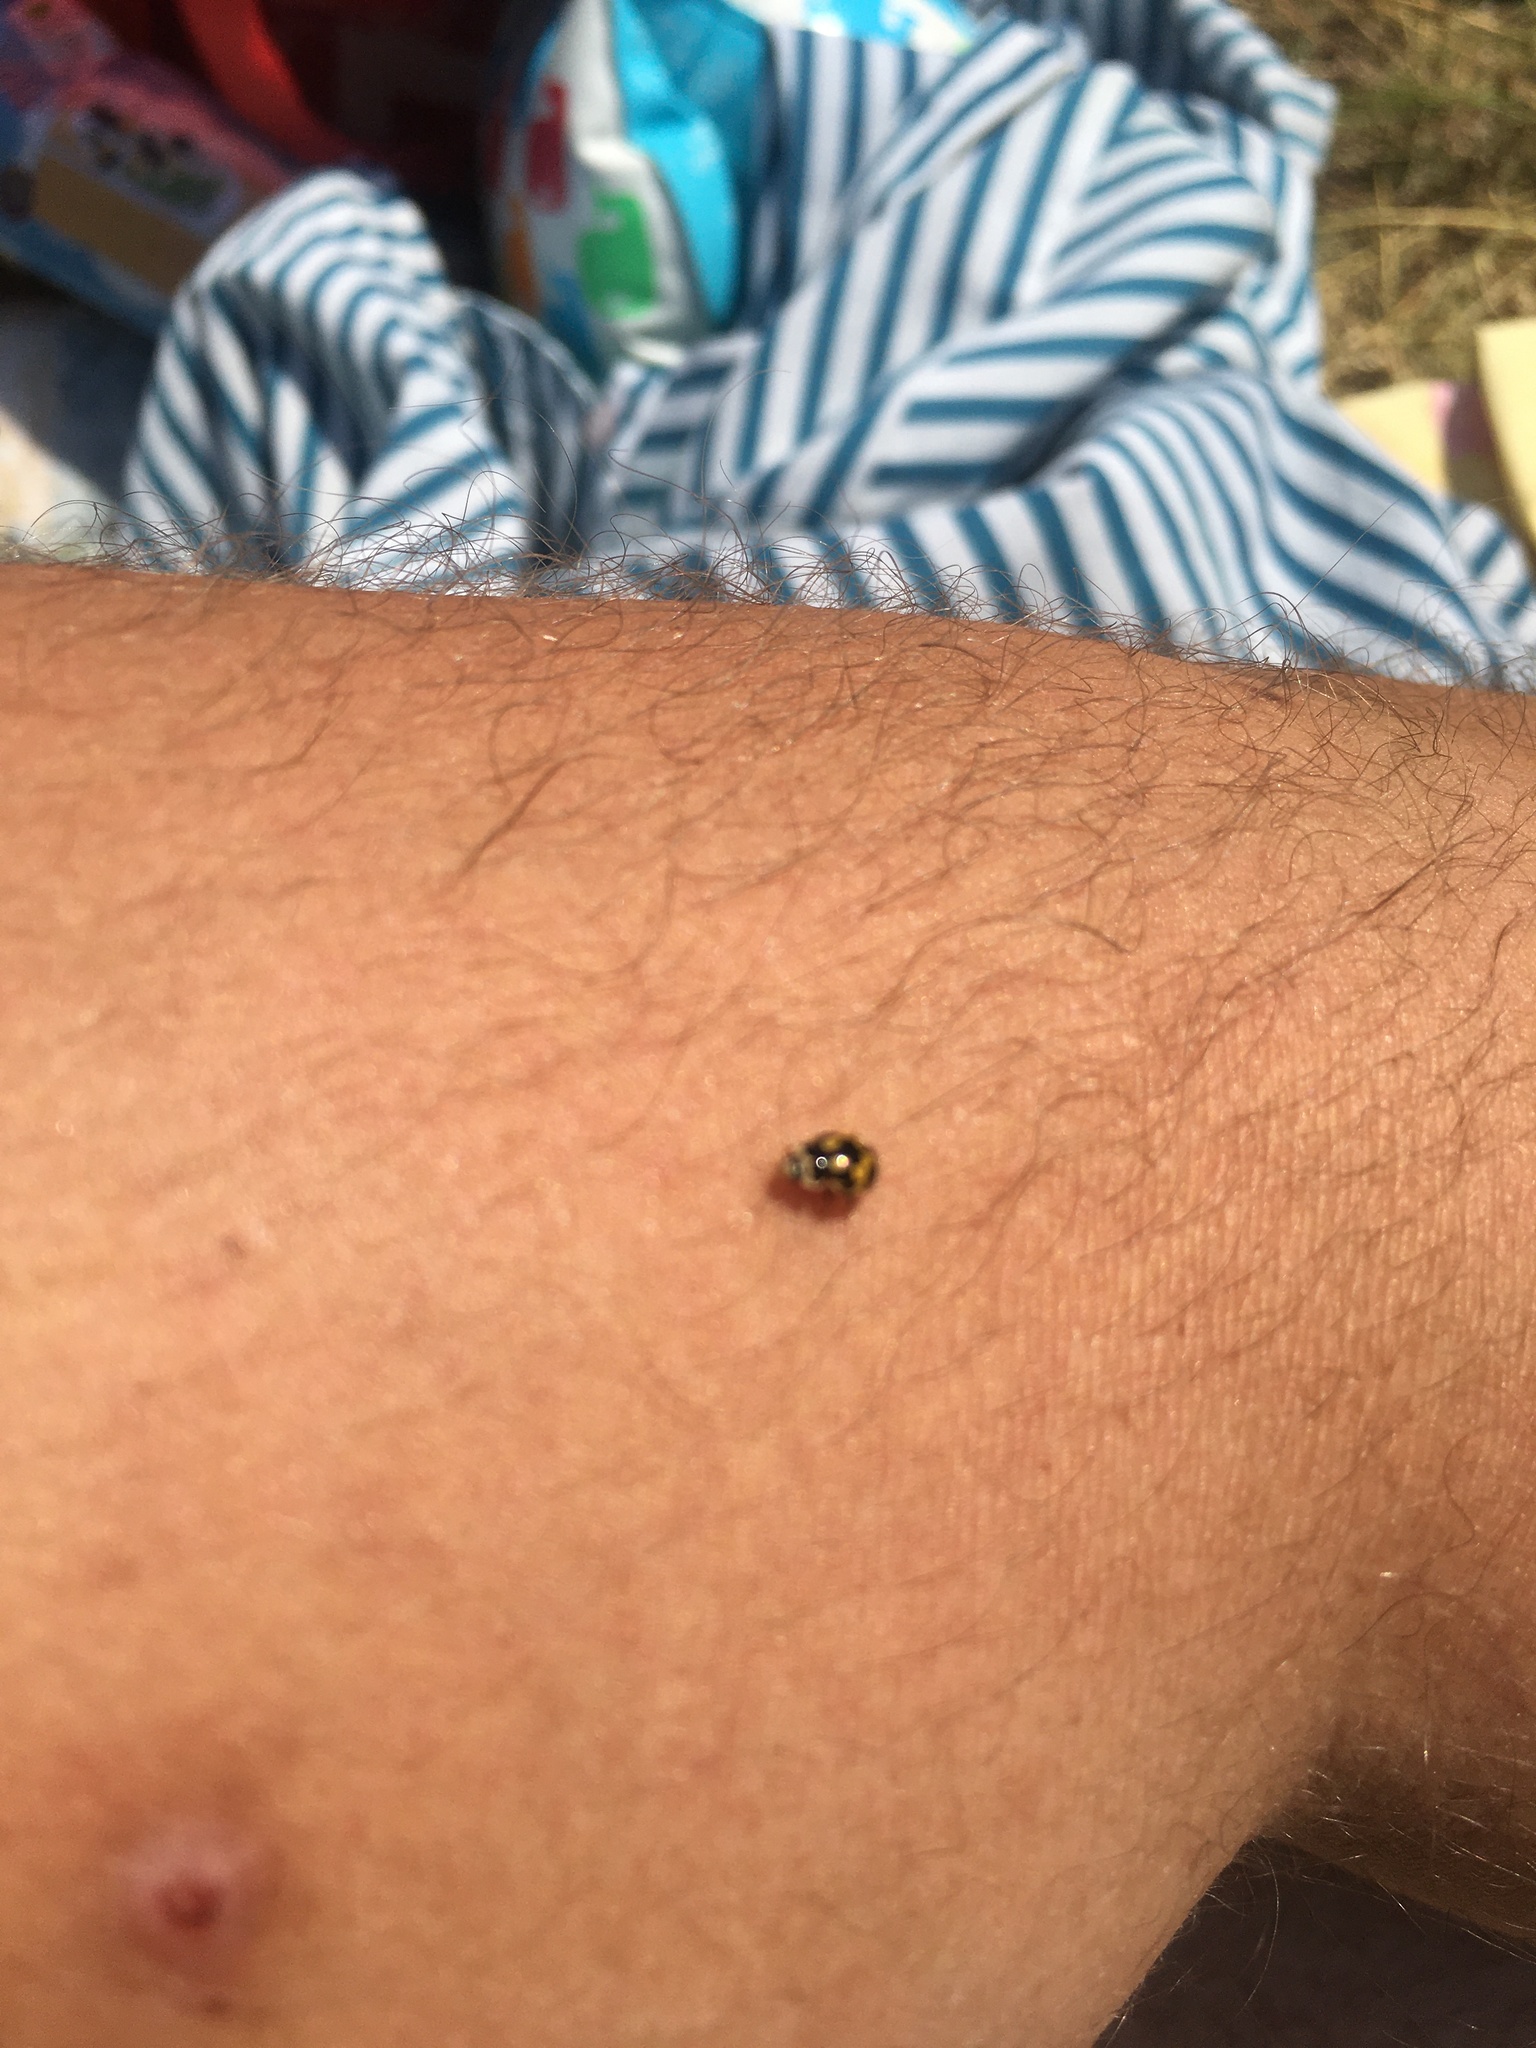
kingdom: Animalia
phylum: Arthropoda
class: Insecta
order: Coleoptera
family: Coccinellidae
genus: Propylaea
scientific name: Propylaea quatuordecimpunctata
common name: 14-spotted ladybird beetle
